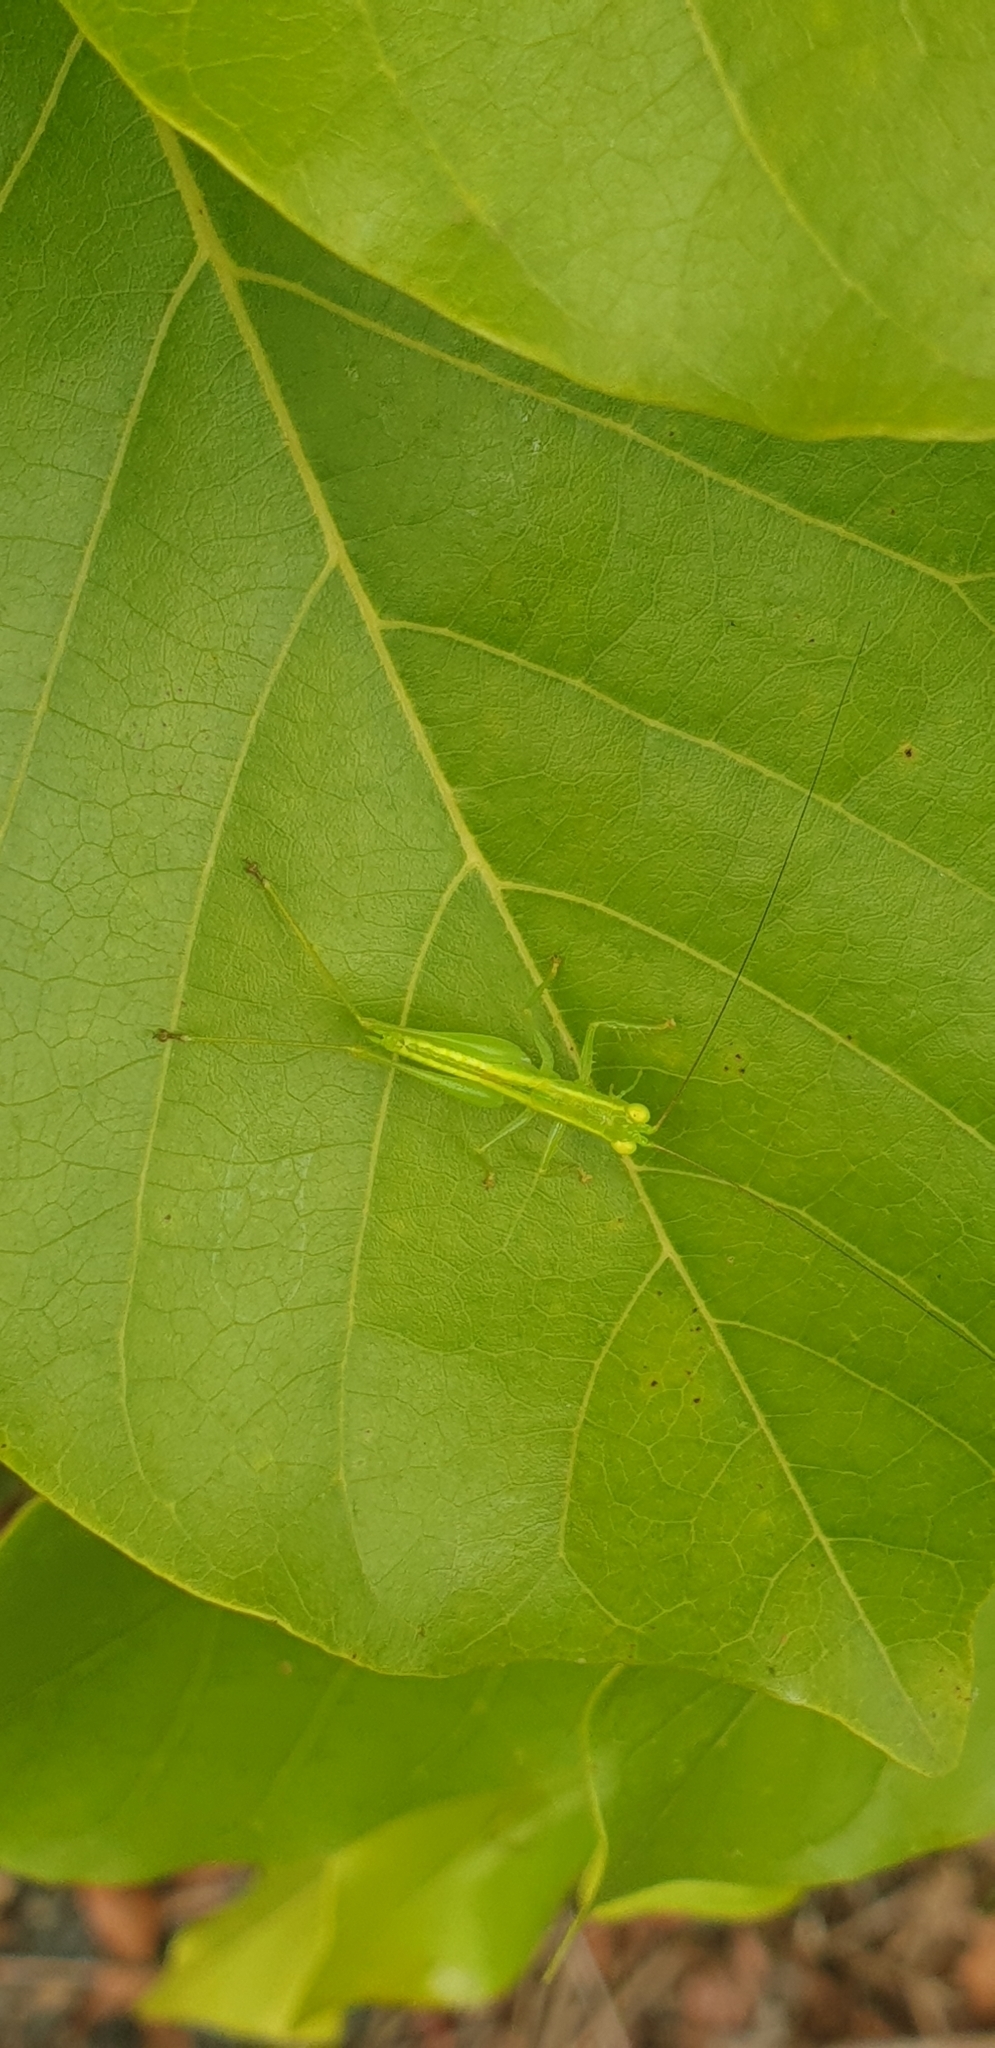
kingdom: Animalia
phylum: Arthropoda
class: Insecta
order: Orthoptera
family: Tettigoniidae
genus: Austrophlugis
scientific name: Austrophlugis debaari
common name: Debaar's swayer
